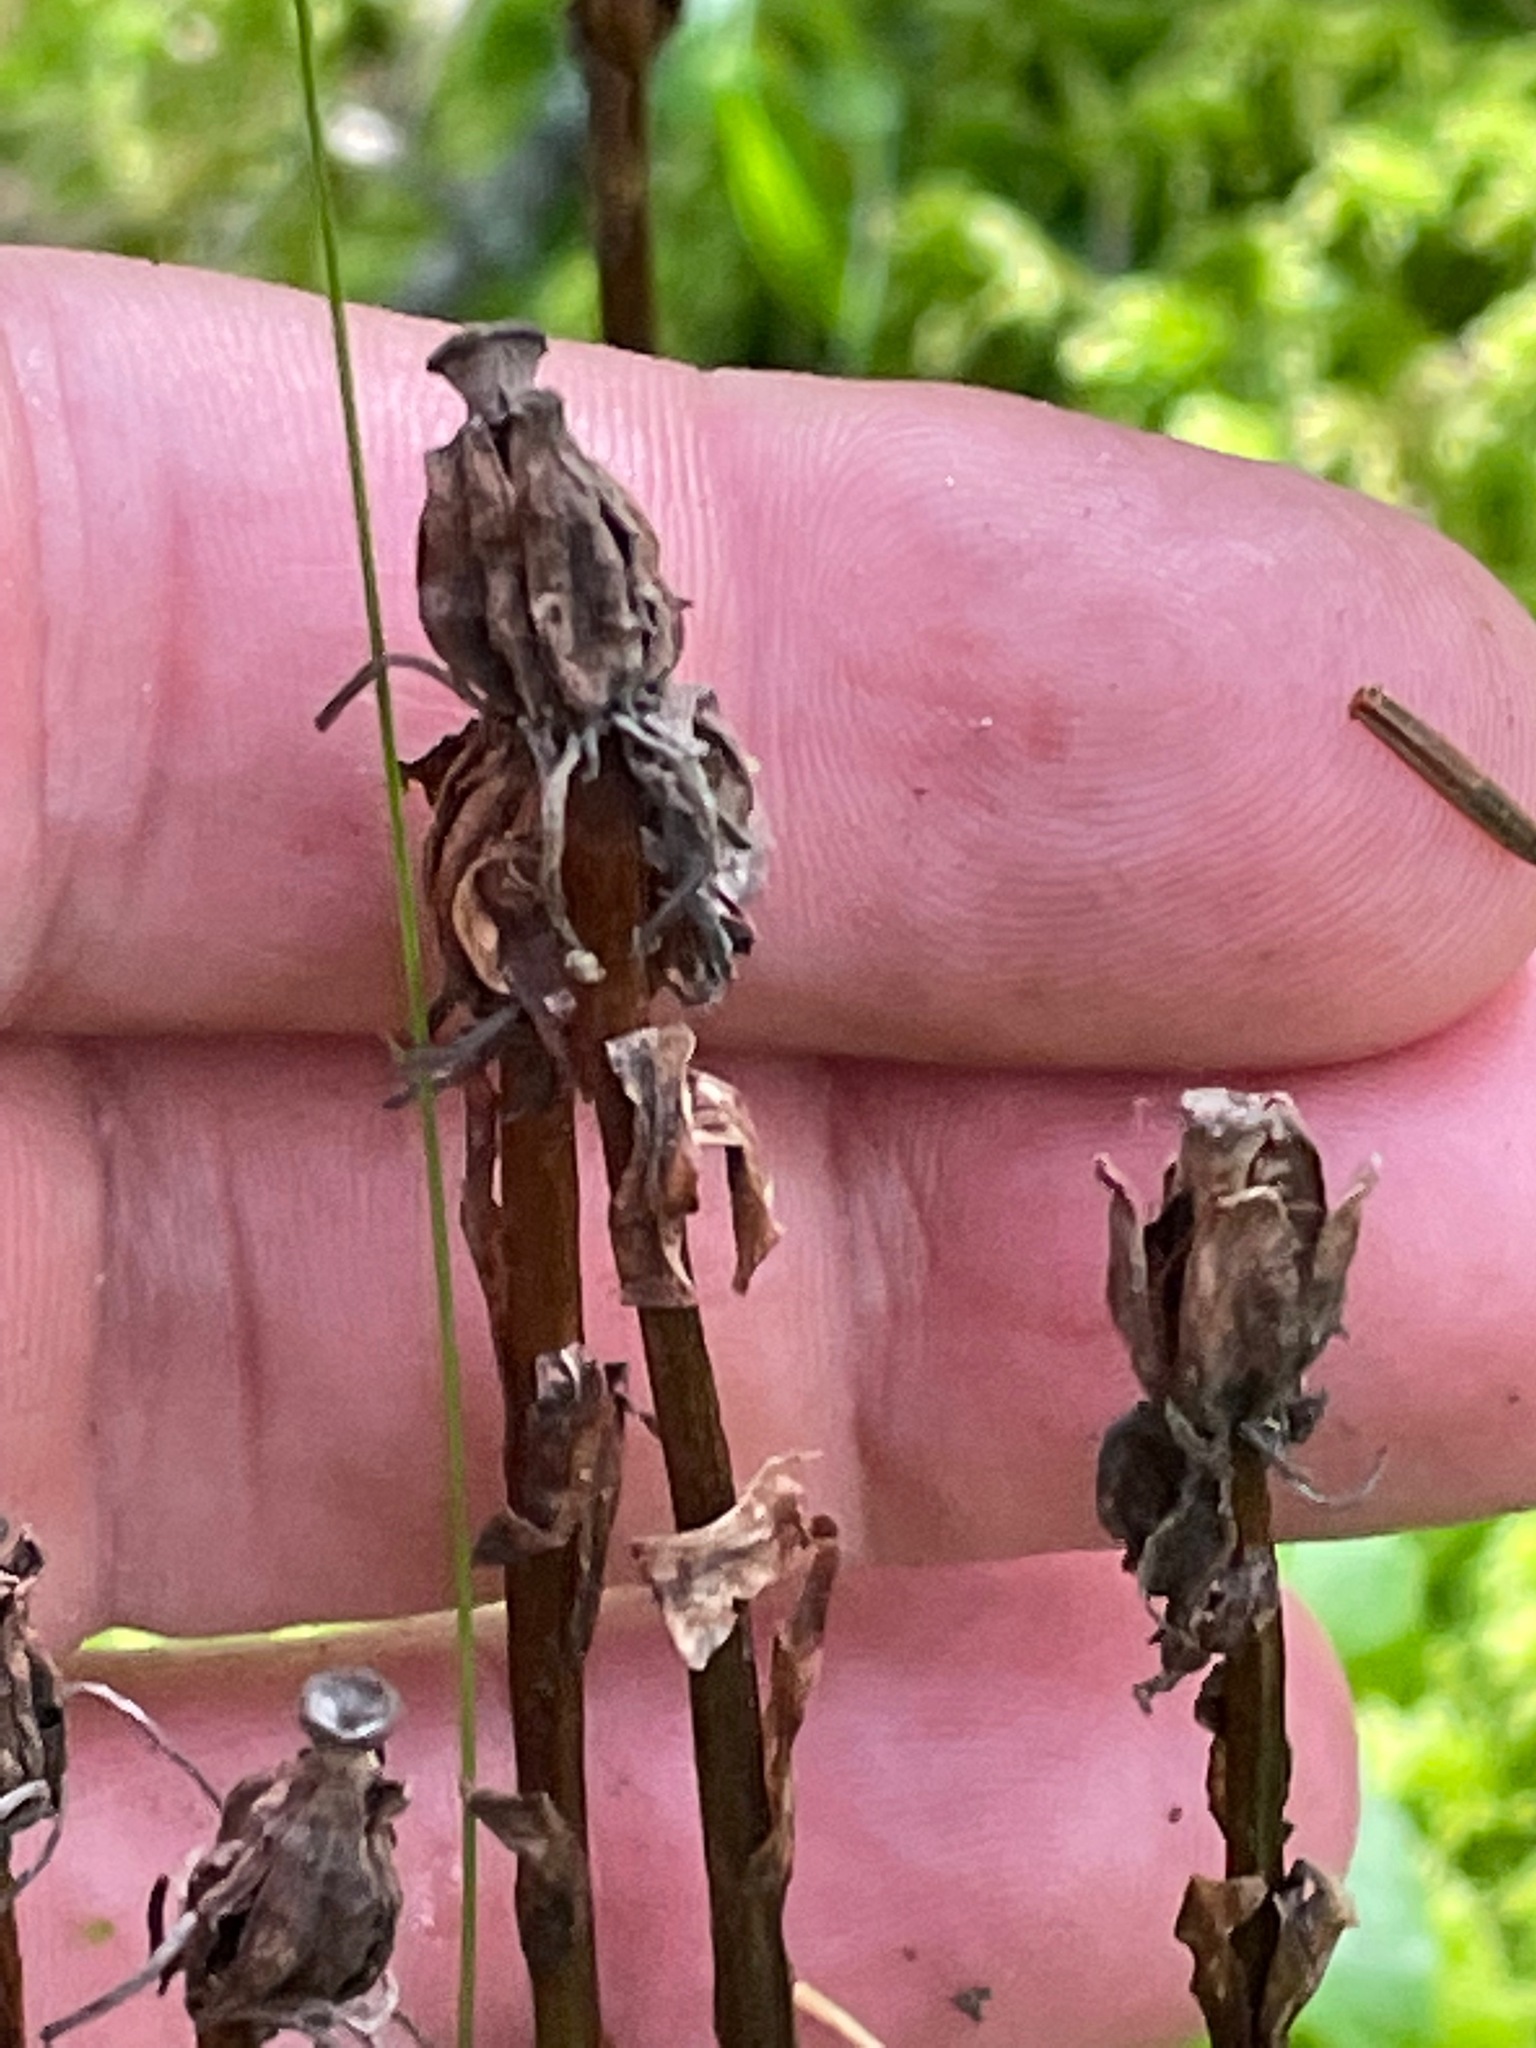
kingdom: Plantae
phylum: Tracheophyta
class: Magnoliopsida
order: Ericales
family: Ericaceae
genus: Monotropa
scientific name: Monotropa uniflora
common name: Convulsion root
